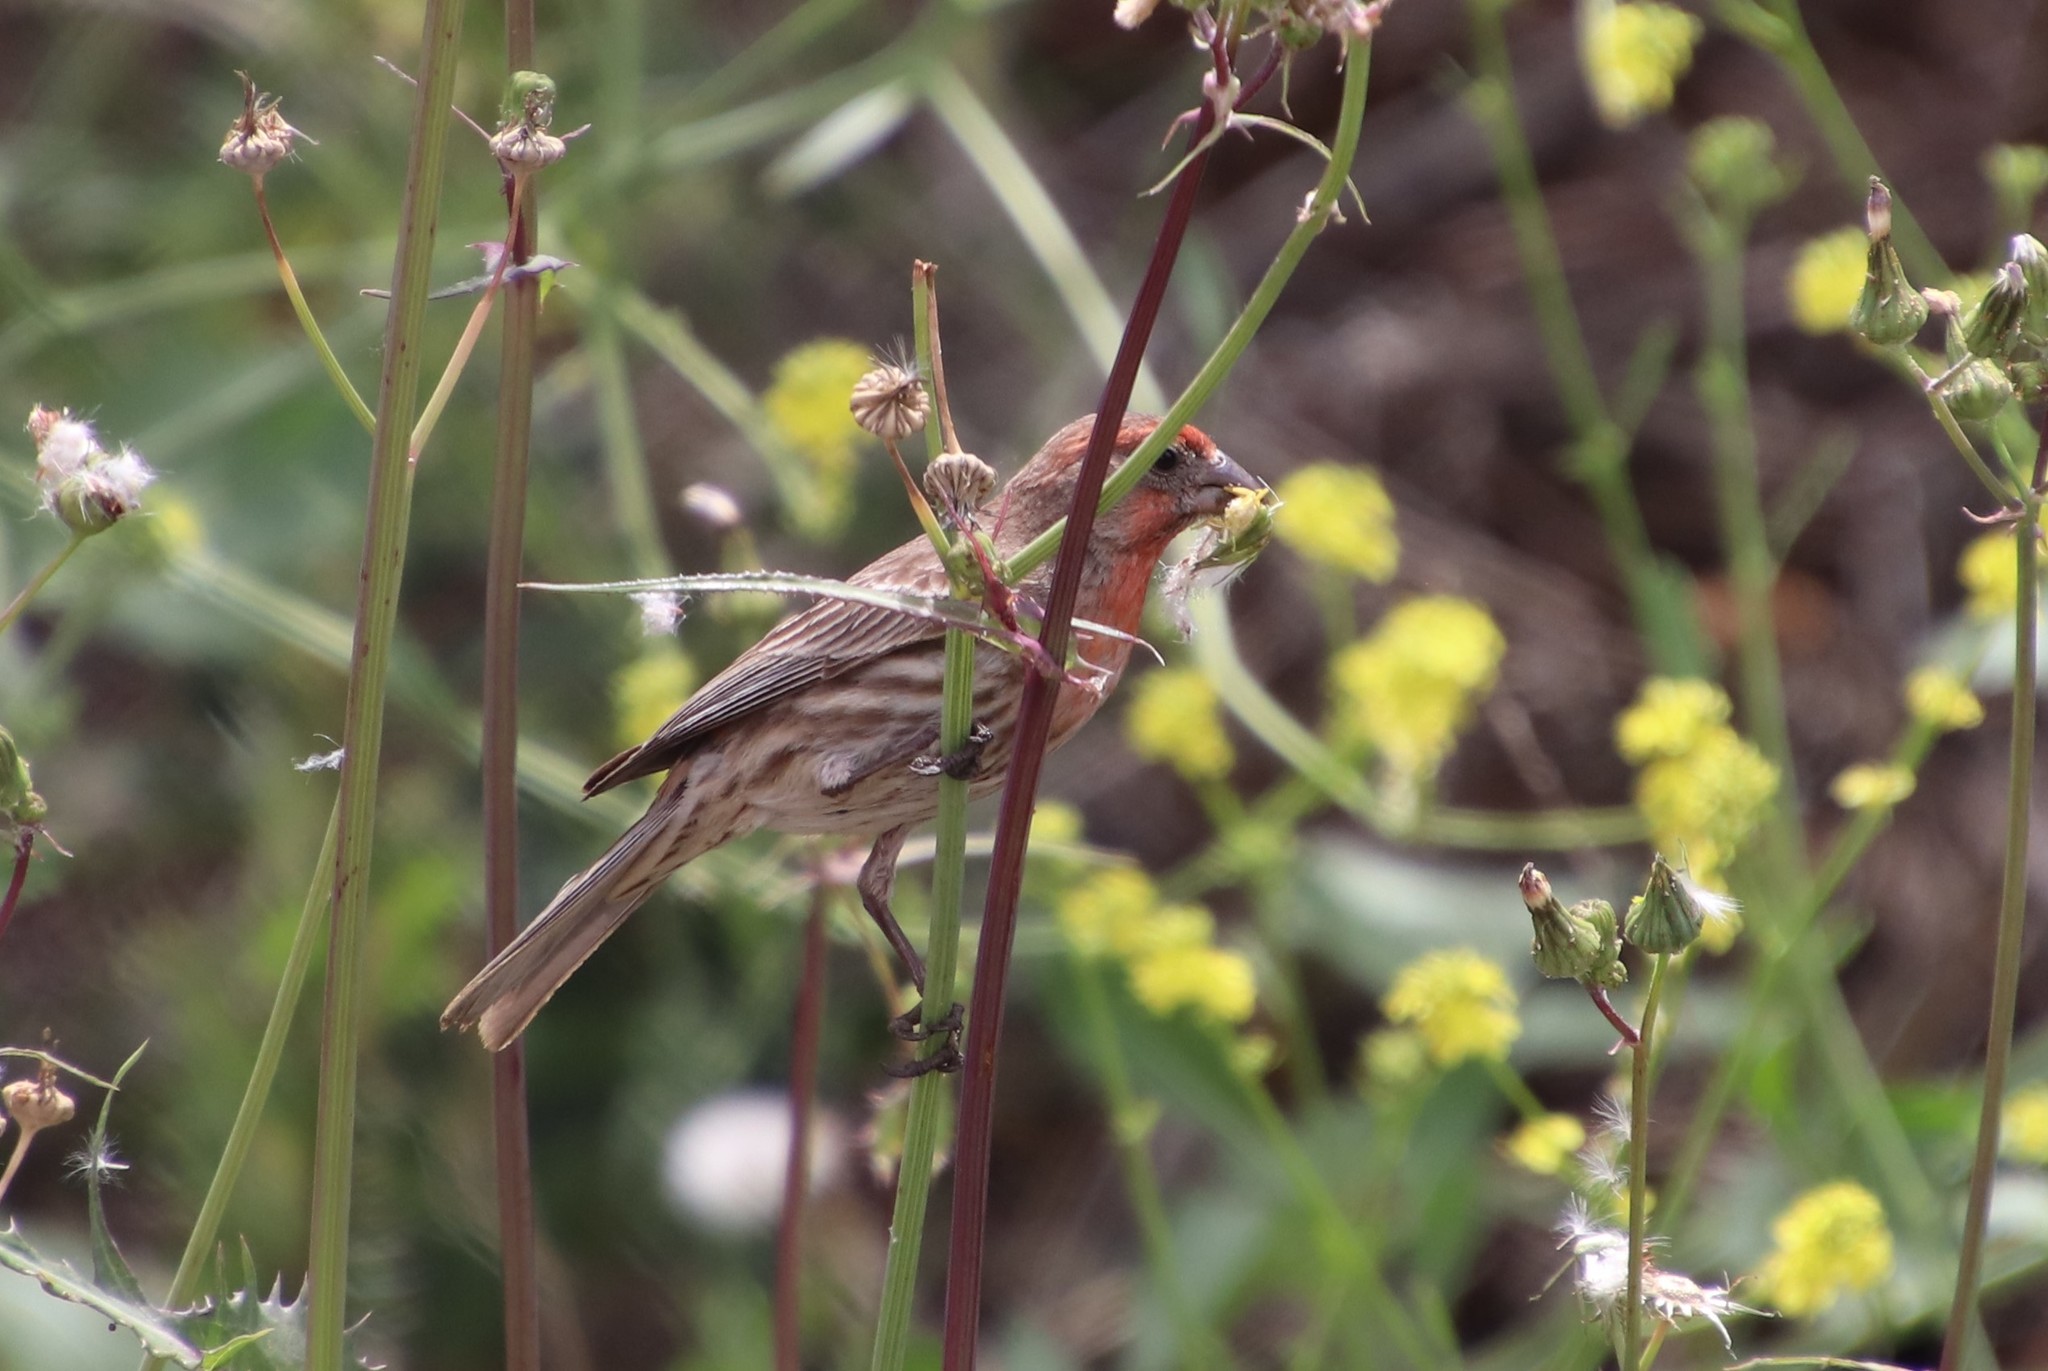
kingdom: Animalia
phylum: Chordata
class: Aves
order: Passeriformes
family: Fringillidae
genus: Haemorhous
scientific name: Haemorhous mexicanus
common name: House finch
